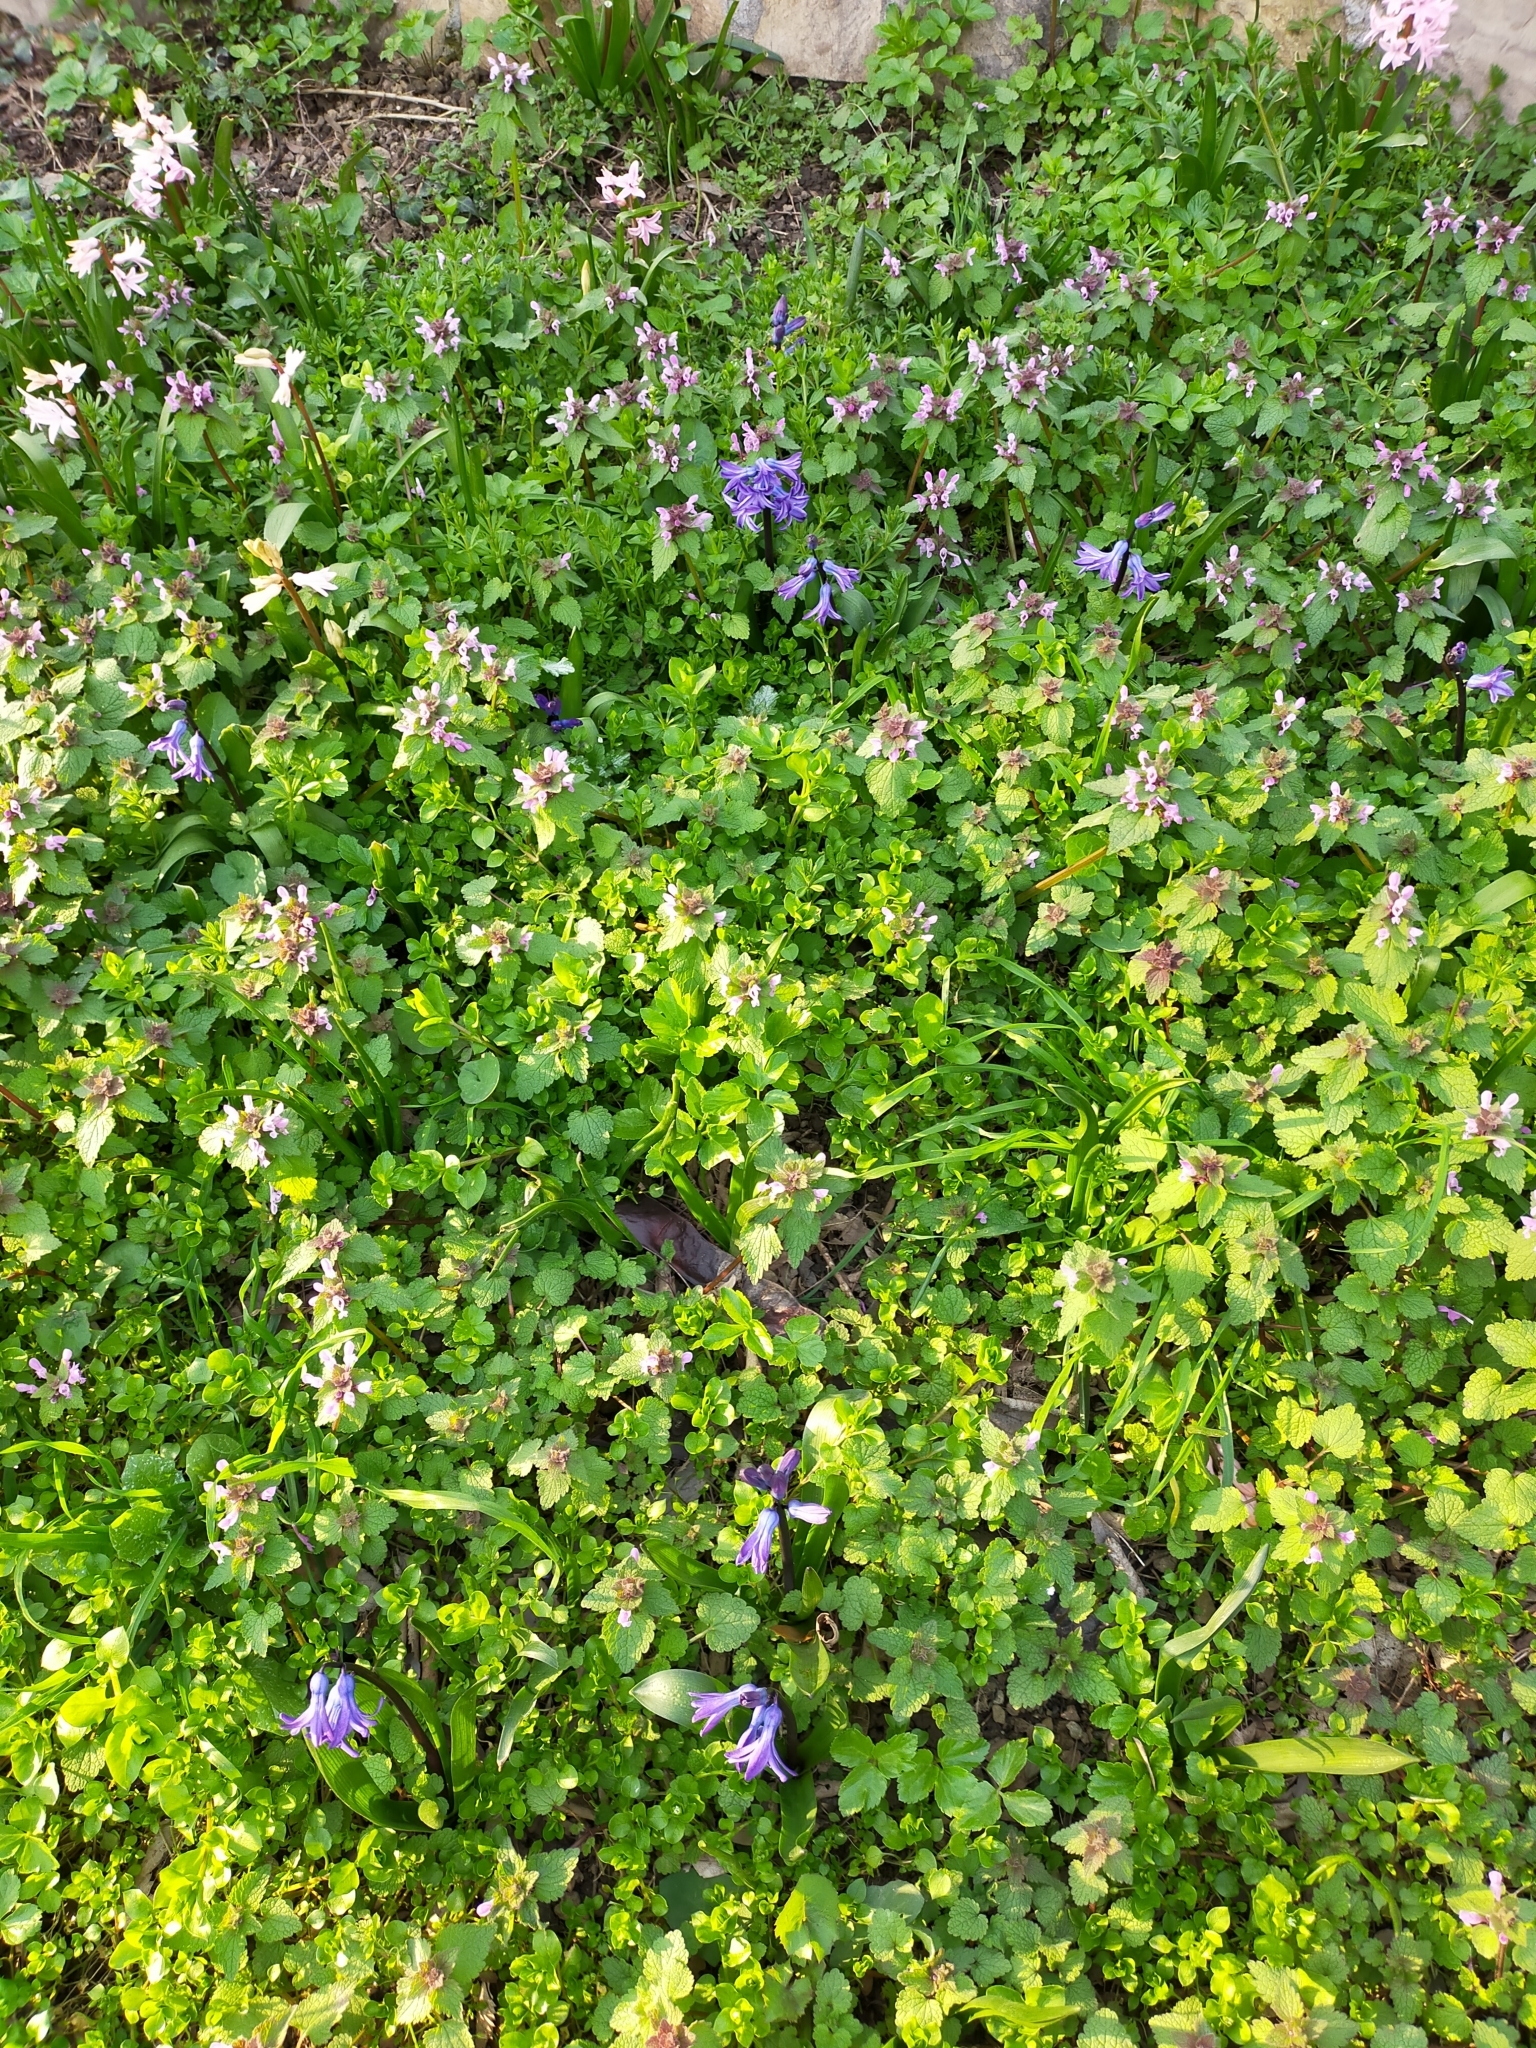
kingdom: Plantae
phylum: Tracheophyta
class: Liliopsida
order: Asparagales
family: Asparagaceae
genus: Hyacinthus
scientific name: Hyacinthus orientalis
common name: Hyacinth
